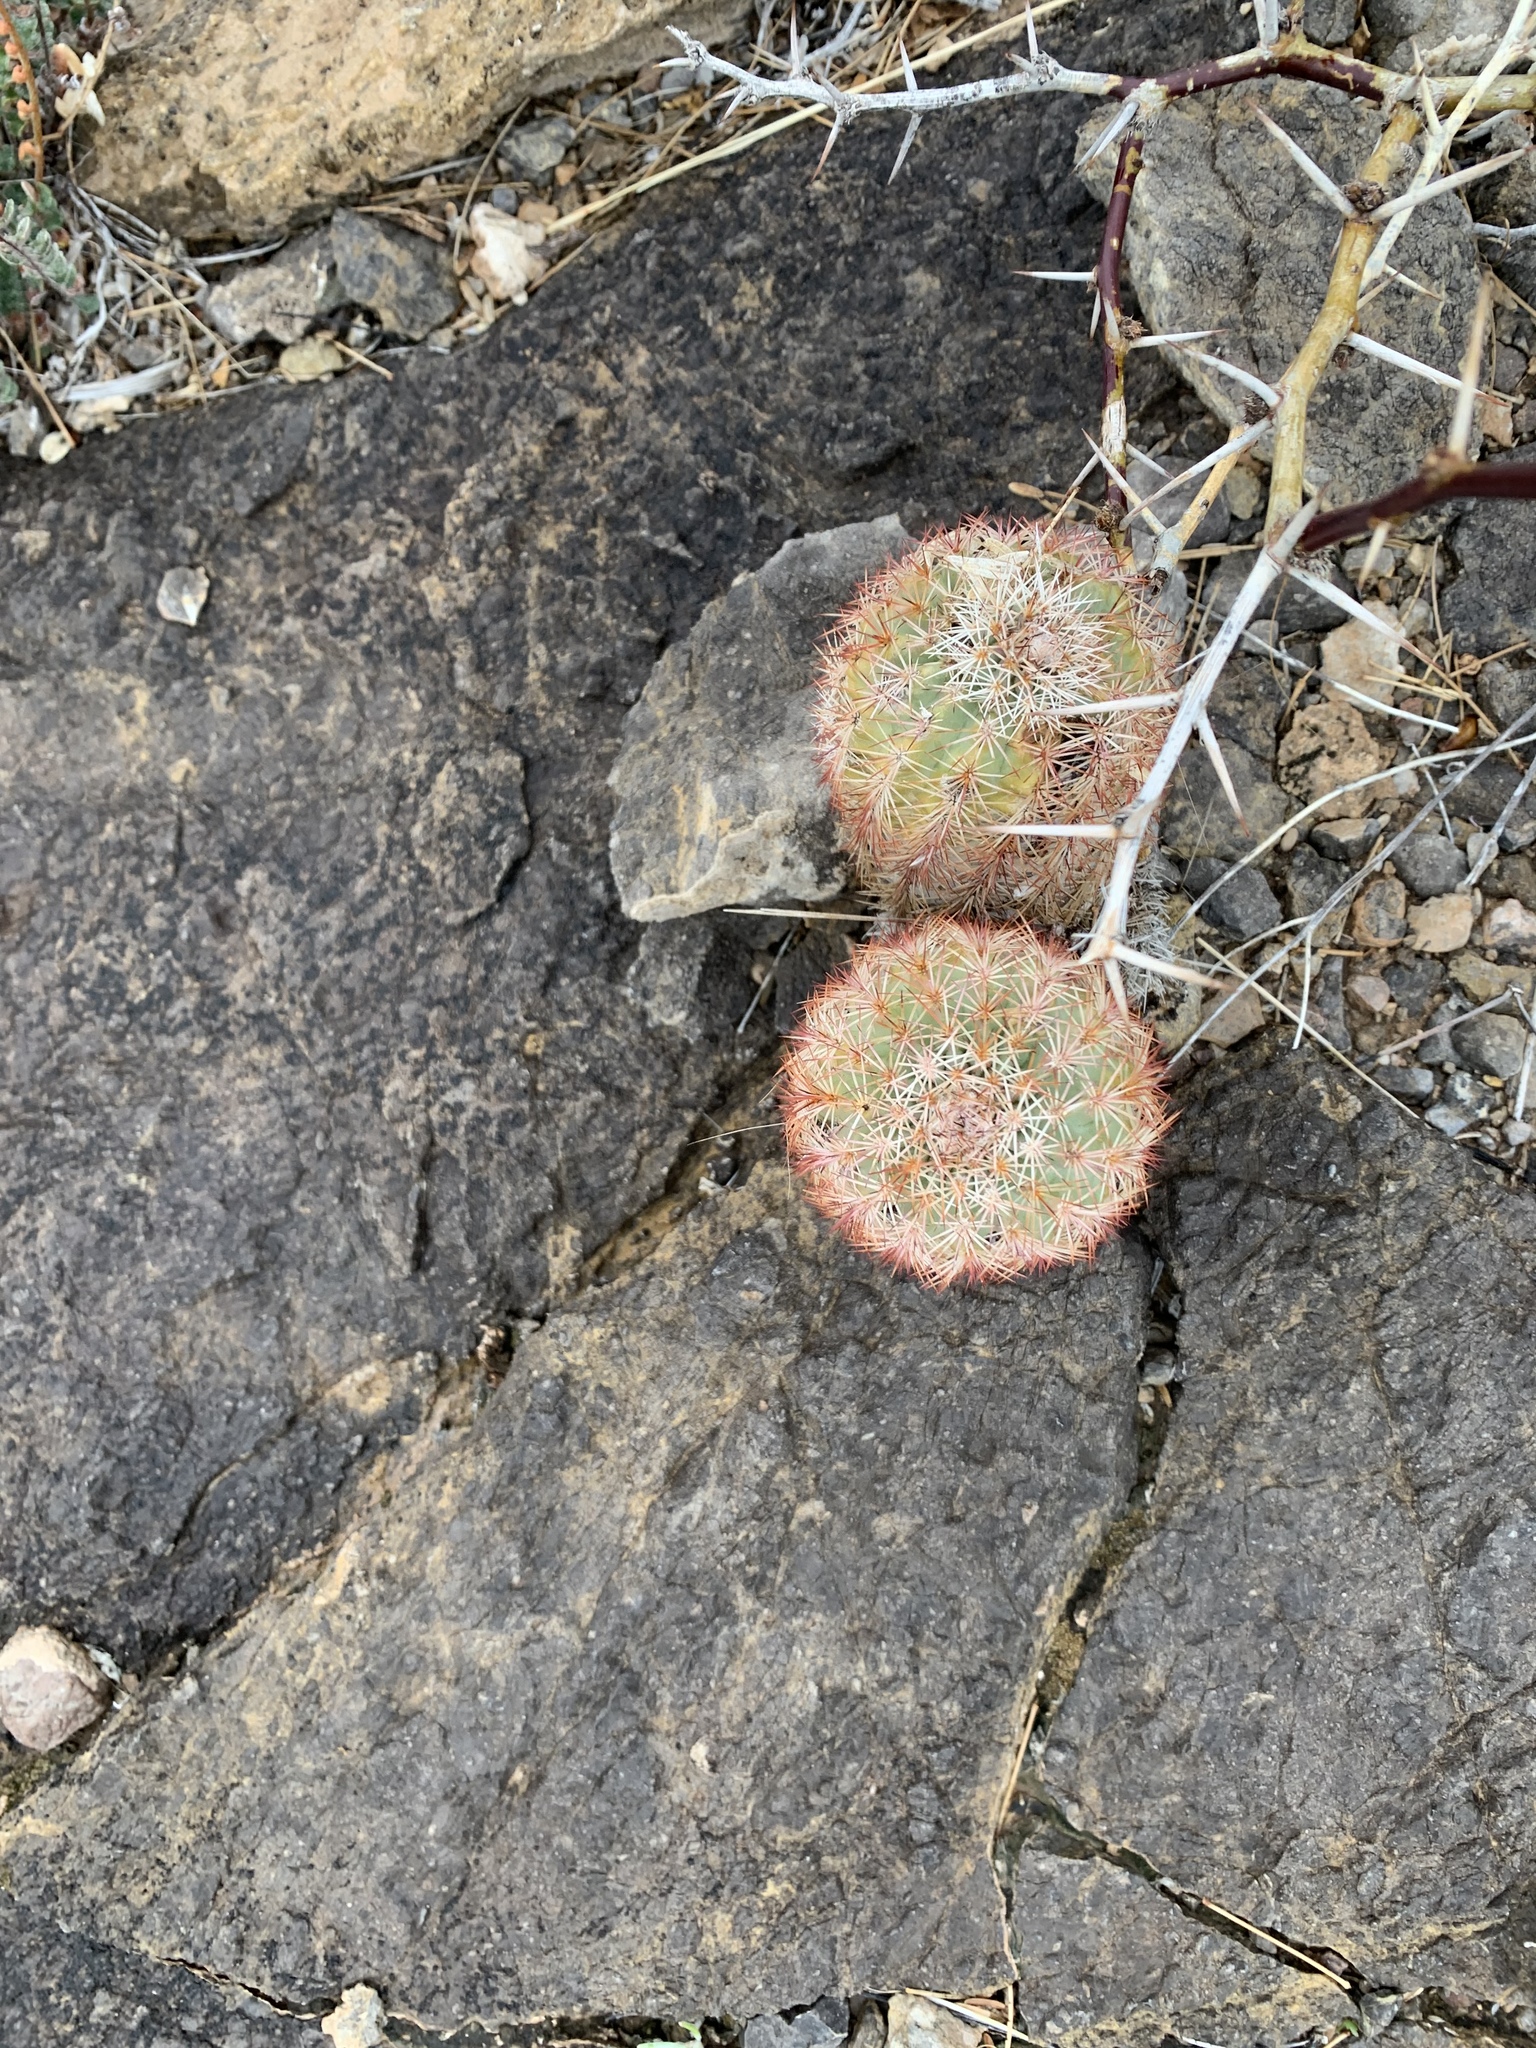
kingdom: Plantae
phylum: Tracheophyta
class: Magnoliopsida
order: Caryophyllales
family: Cactaceae
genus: Echinocereus
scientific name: Echinocereus dasyacanthus
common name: Spiny hedgehog cactus
